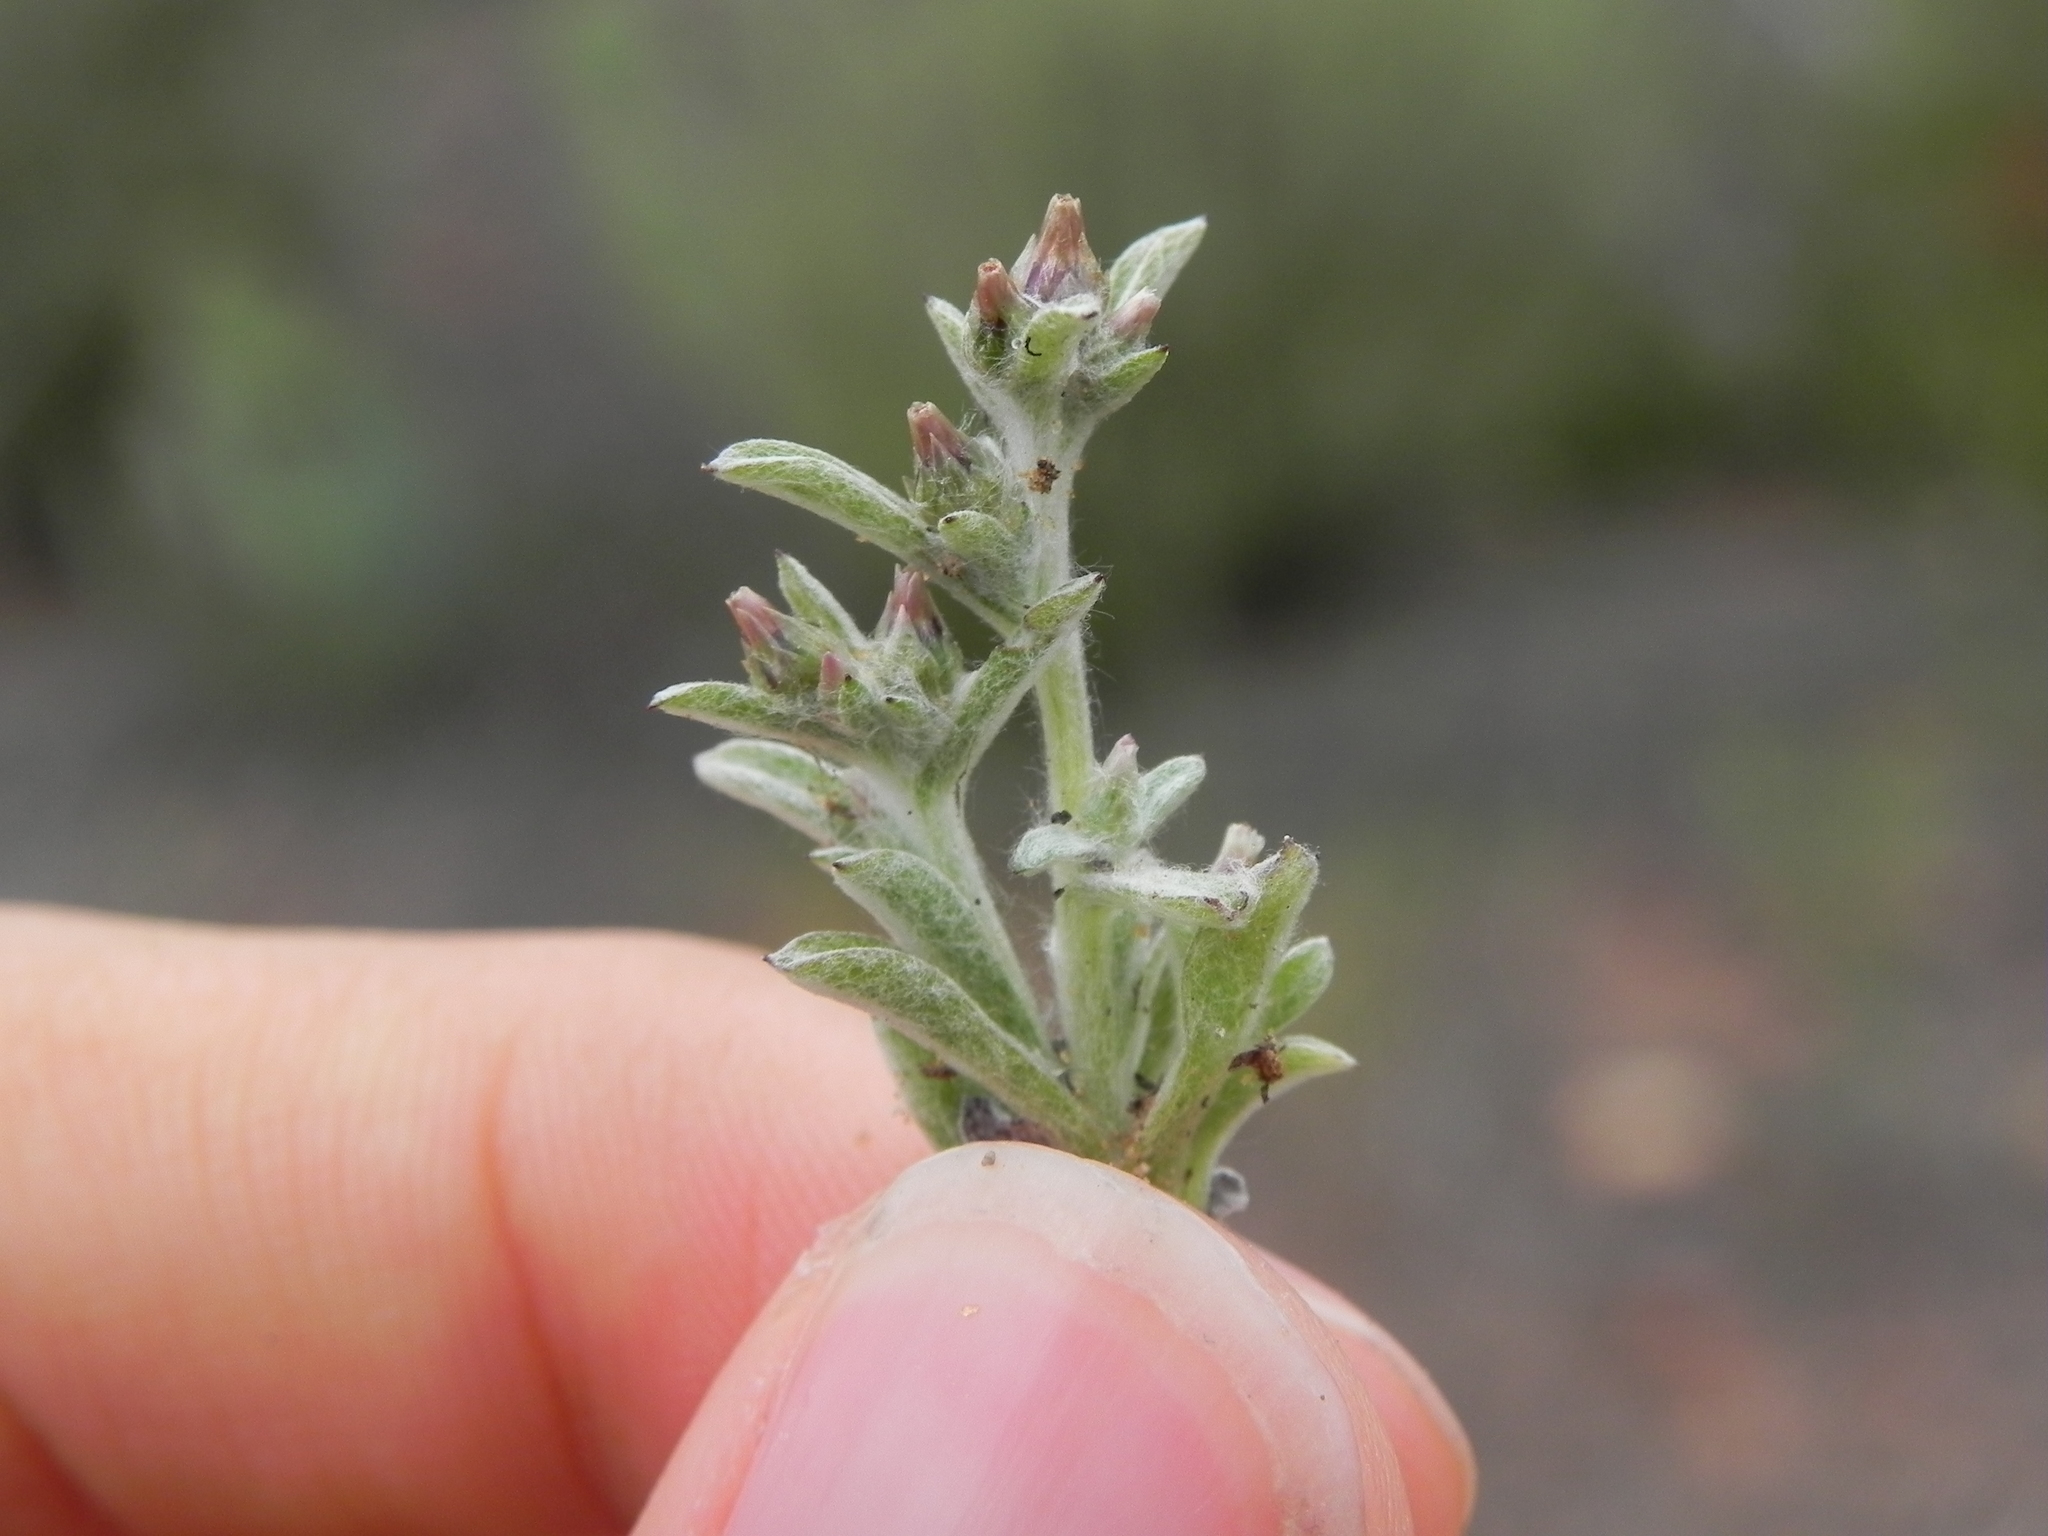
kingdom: Plantae
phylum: Tracheophyta
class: Magnoliopsida
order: Asterales
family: Asteraceae
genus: Gamochaeta
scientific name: Gamochaeta stagnalis
